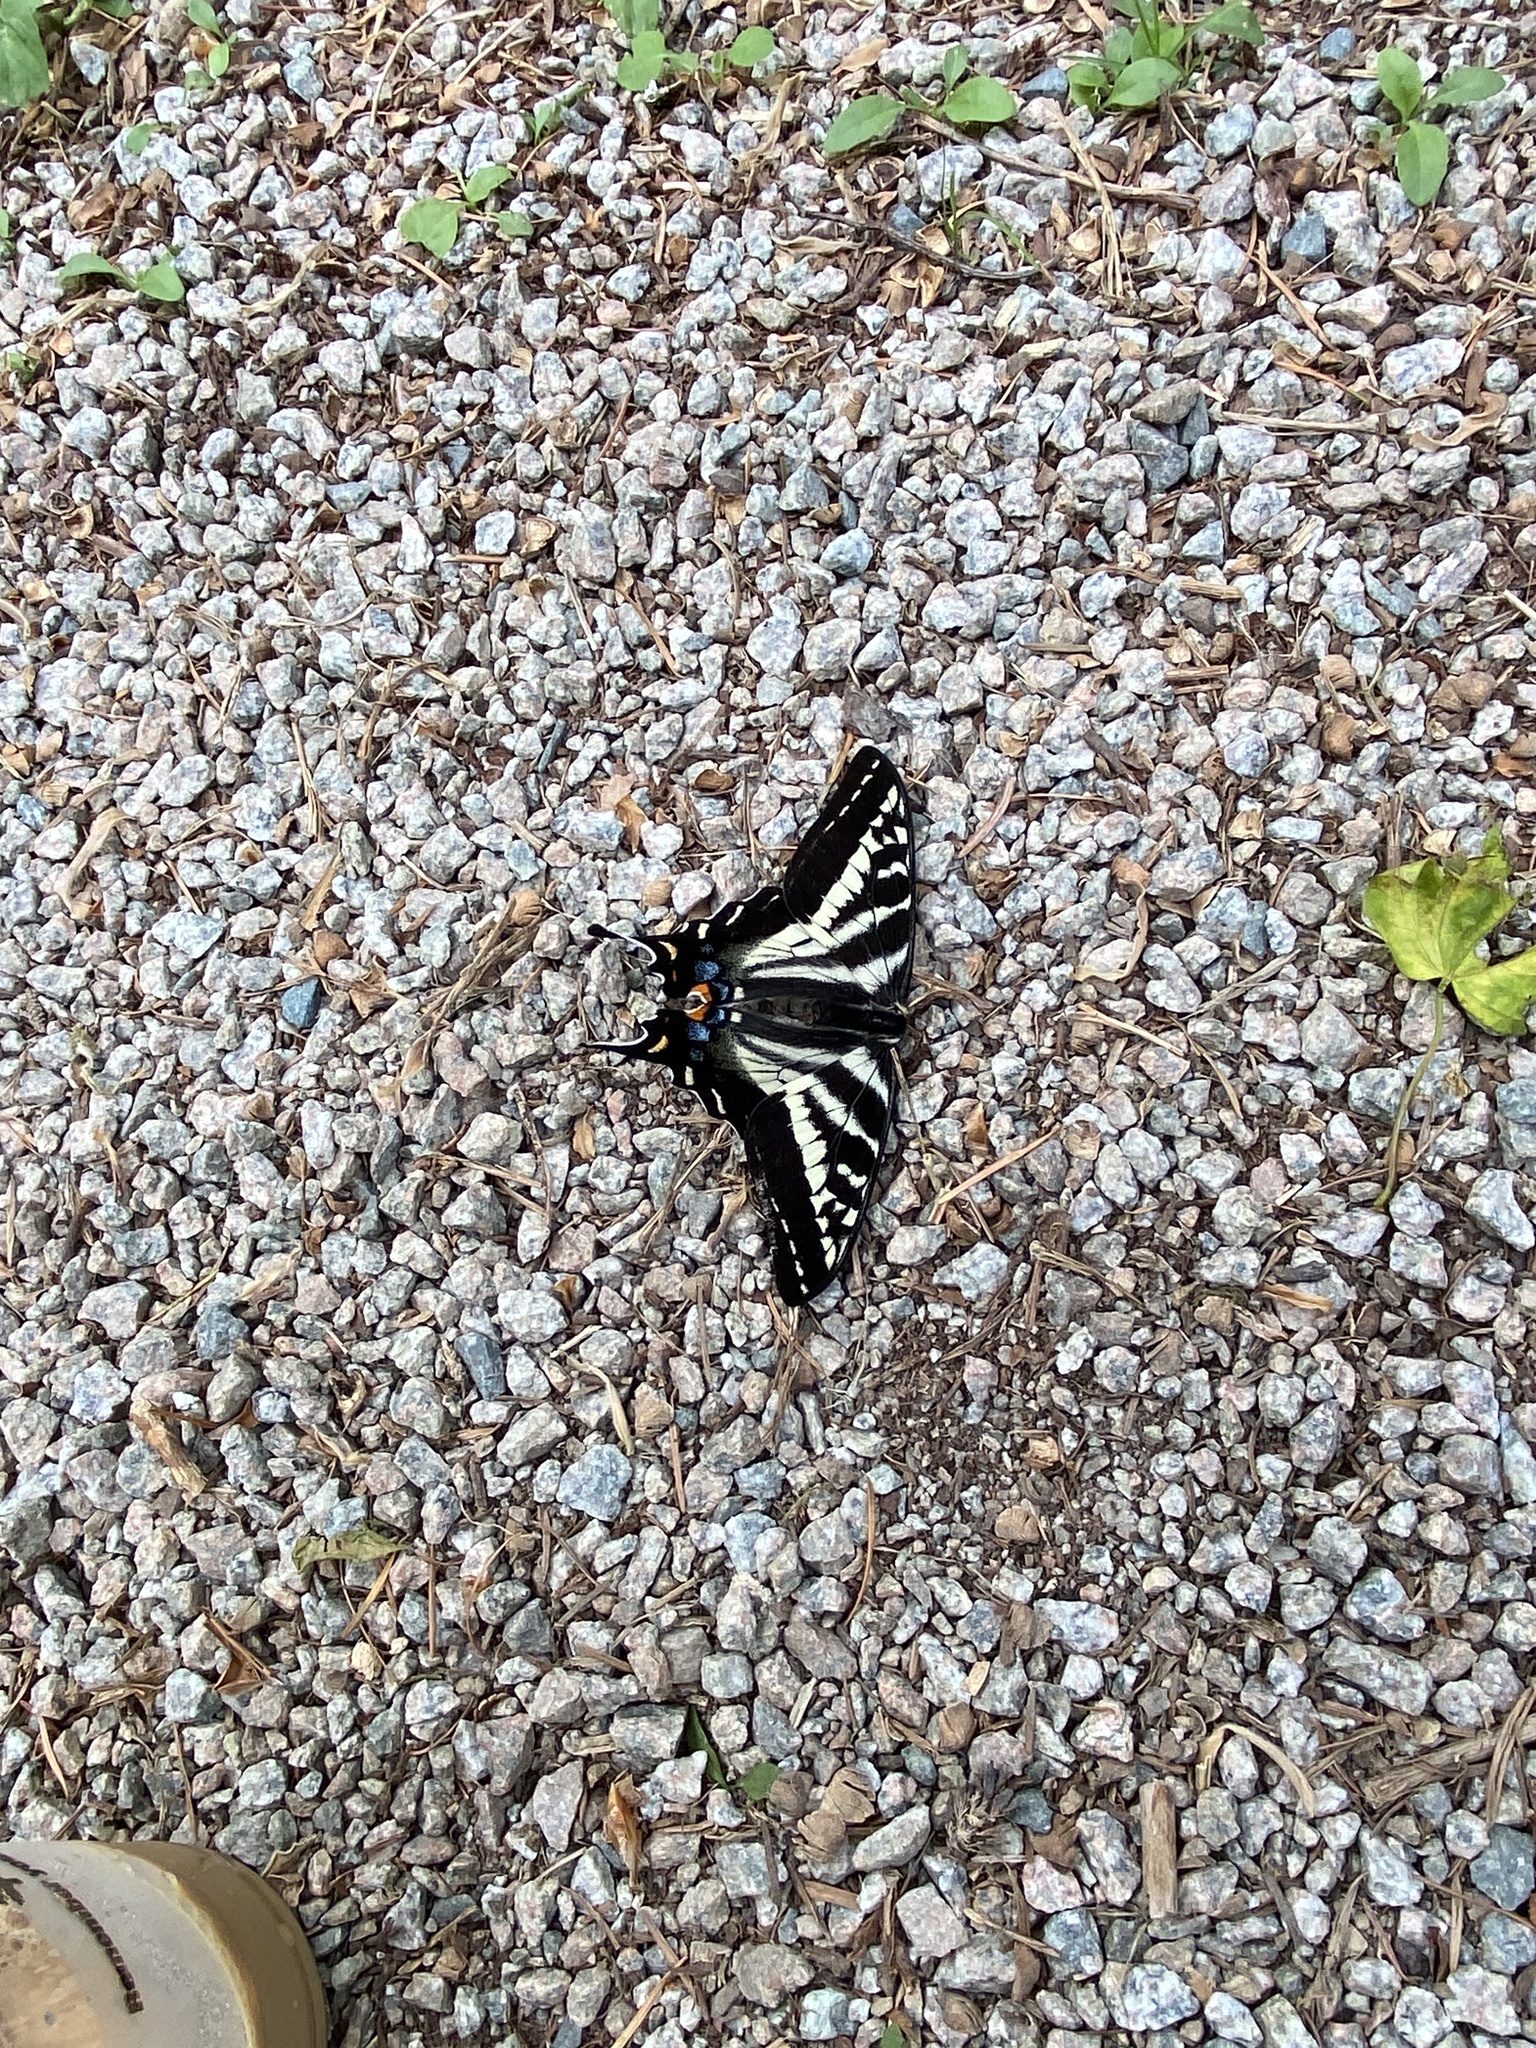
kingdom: Animalia
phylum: Arthropoda
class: Insecta
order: Lepidoptera
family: Papilionidae
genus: Papilio
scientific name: Papilio eurymedon
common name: Pale tiger swallowtail
